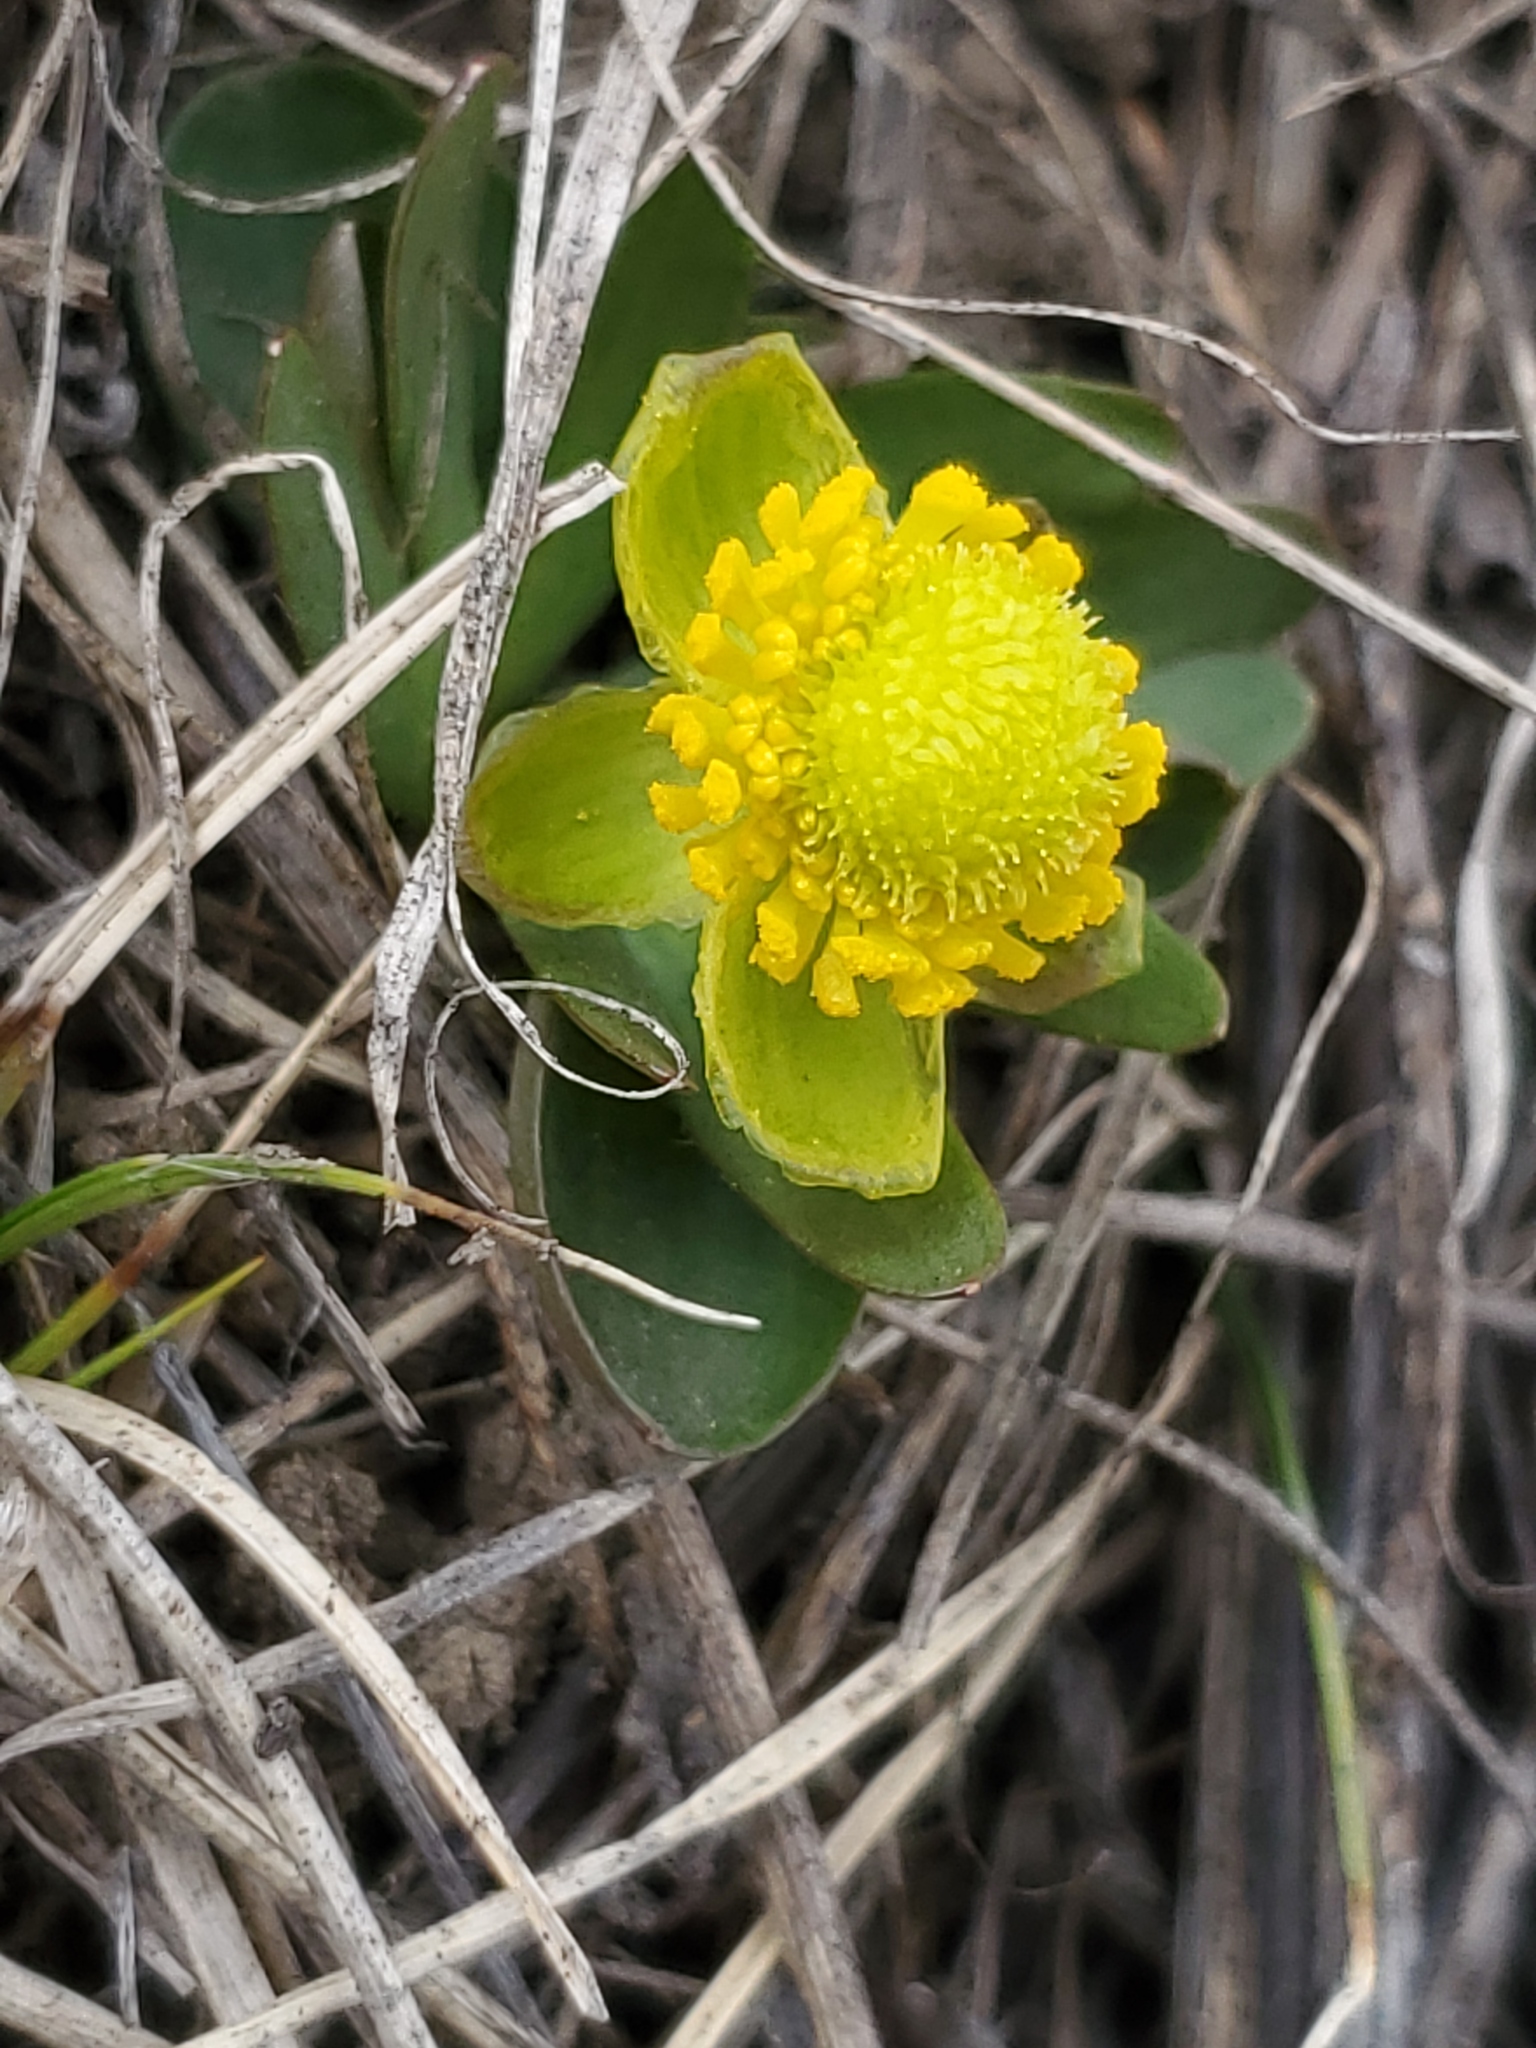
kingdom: Plantae
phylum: Tracheophyta
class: Magnoliopsida
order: Ranunculales
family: Ranunculaceae
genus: Ranunculus
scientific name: Ranunculus glaberrimus
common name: Sagebrush buttercup
